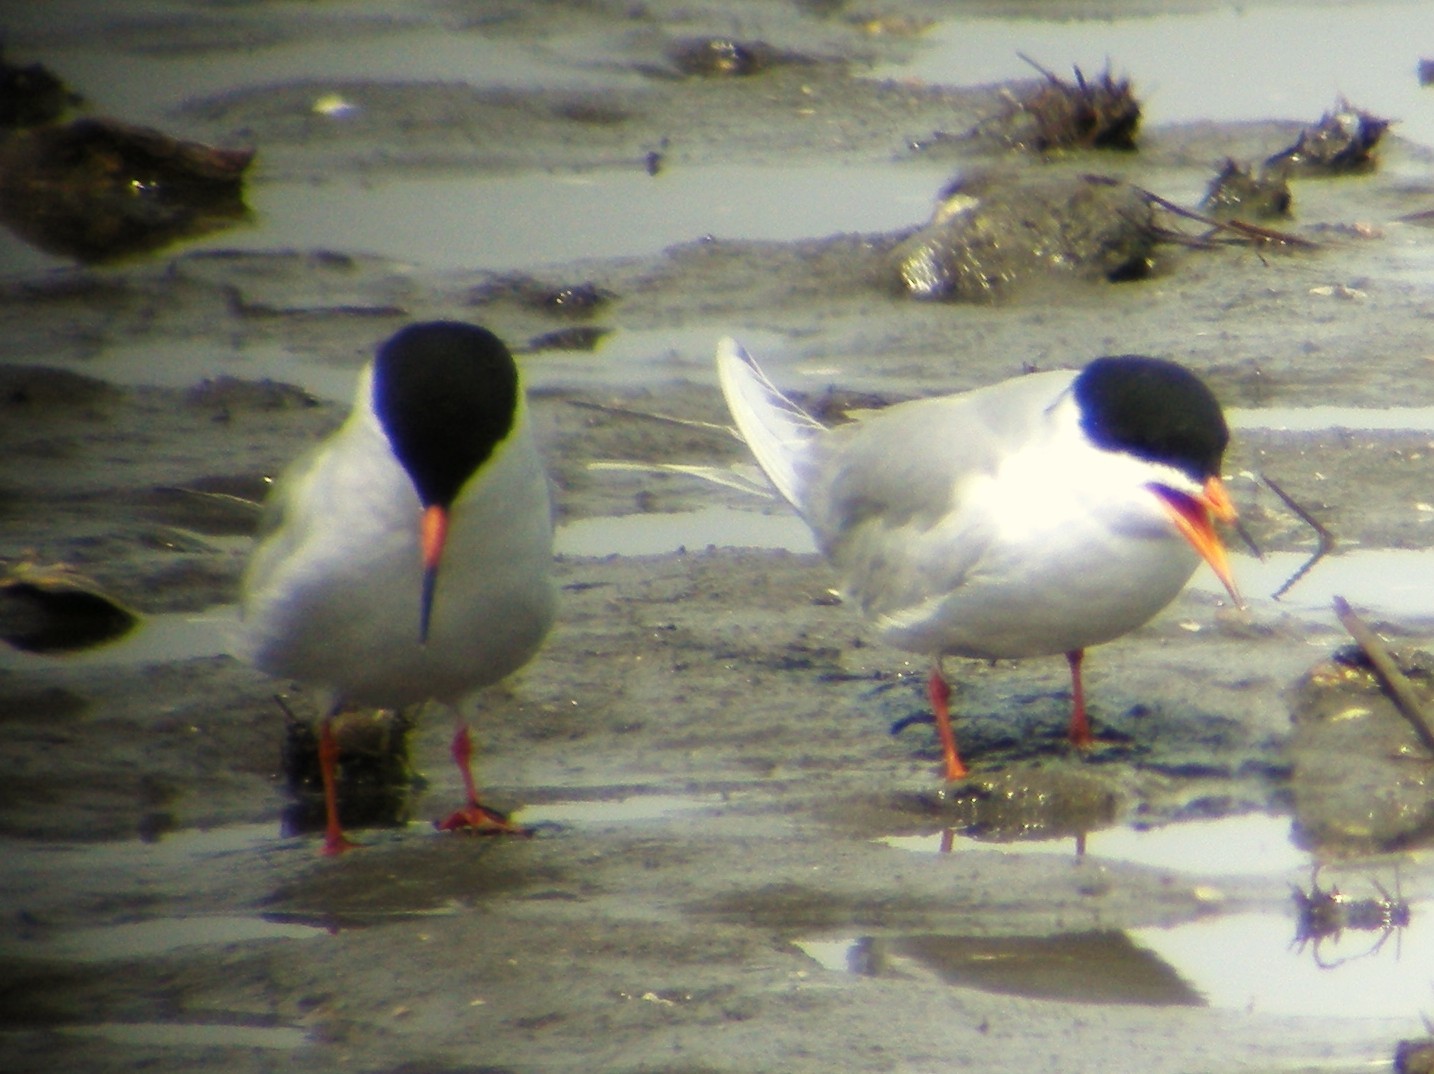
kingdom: Animalia
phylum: Chordata
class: Aves
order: Charadriiformes
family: Laridae
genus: Sterna
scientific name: Sterna forsteri
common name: Forster's tern
